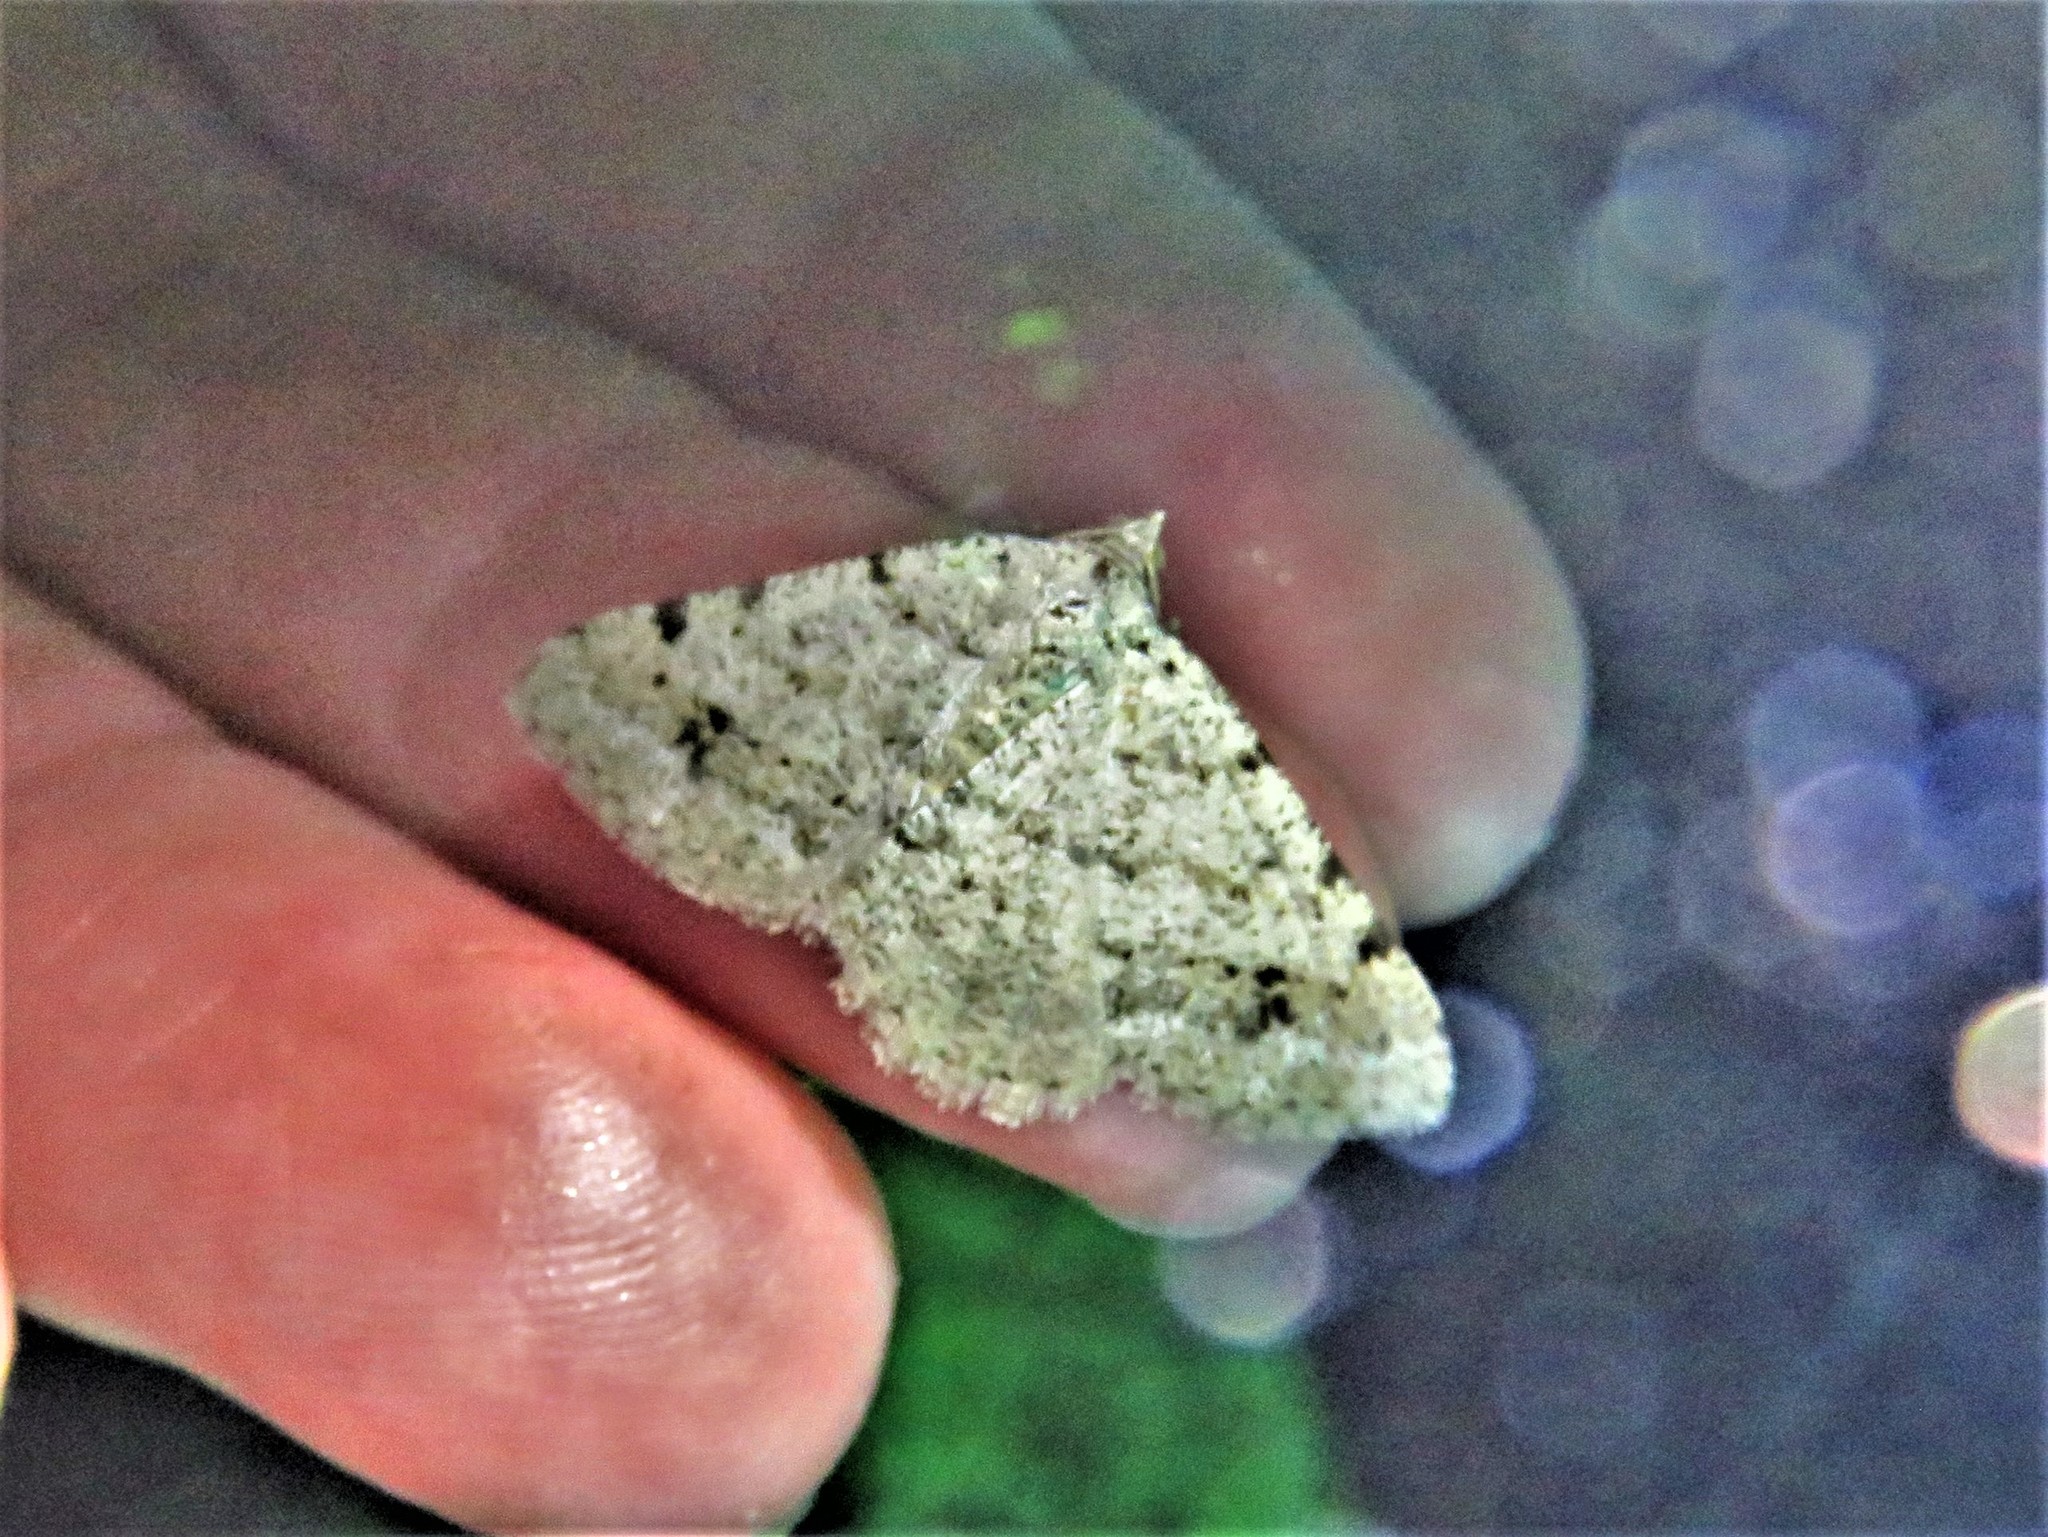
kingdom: Animalia
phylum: Arthropoda
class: Insecta
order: Lepidoptera
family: Geometridae
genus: Digrammia
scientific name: Digrammia ocellinata
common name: Faint-spotted angle
